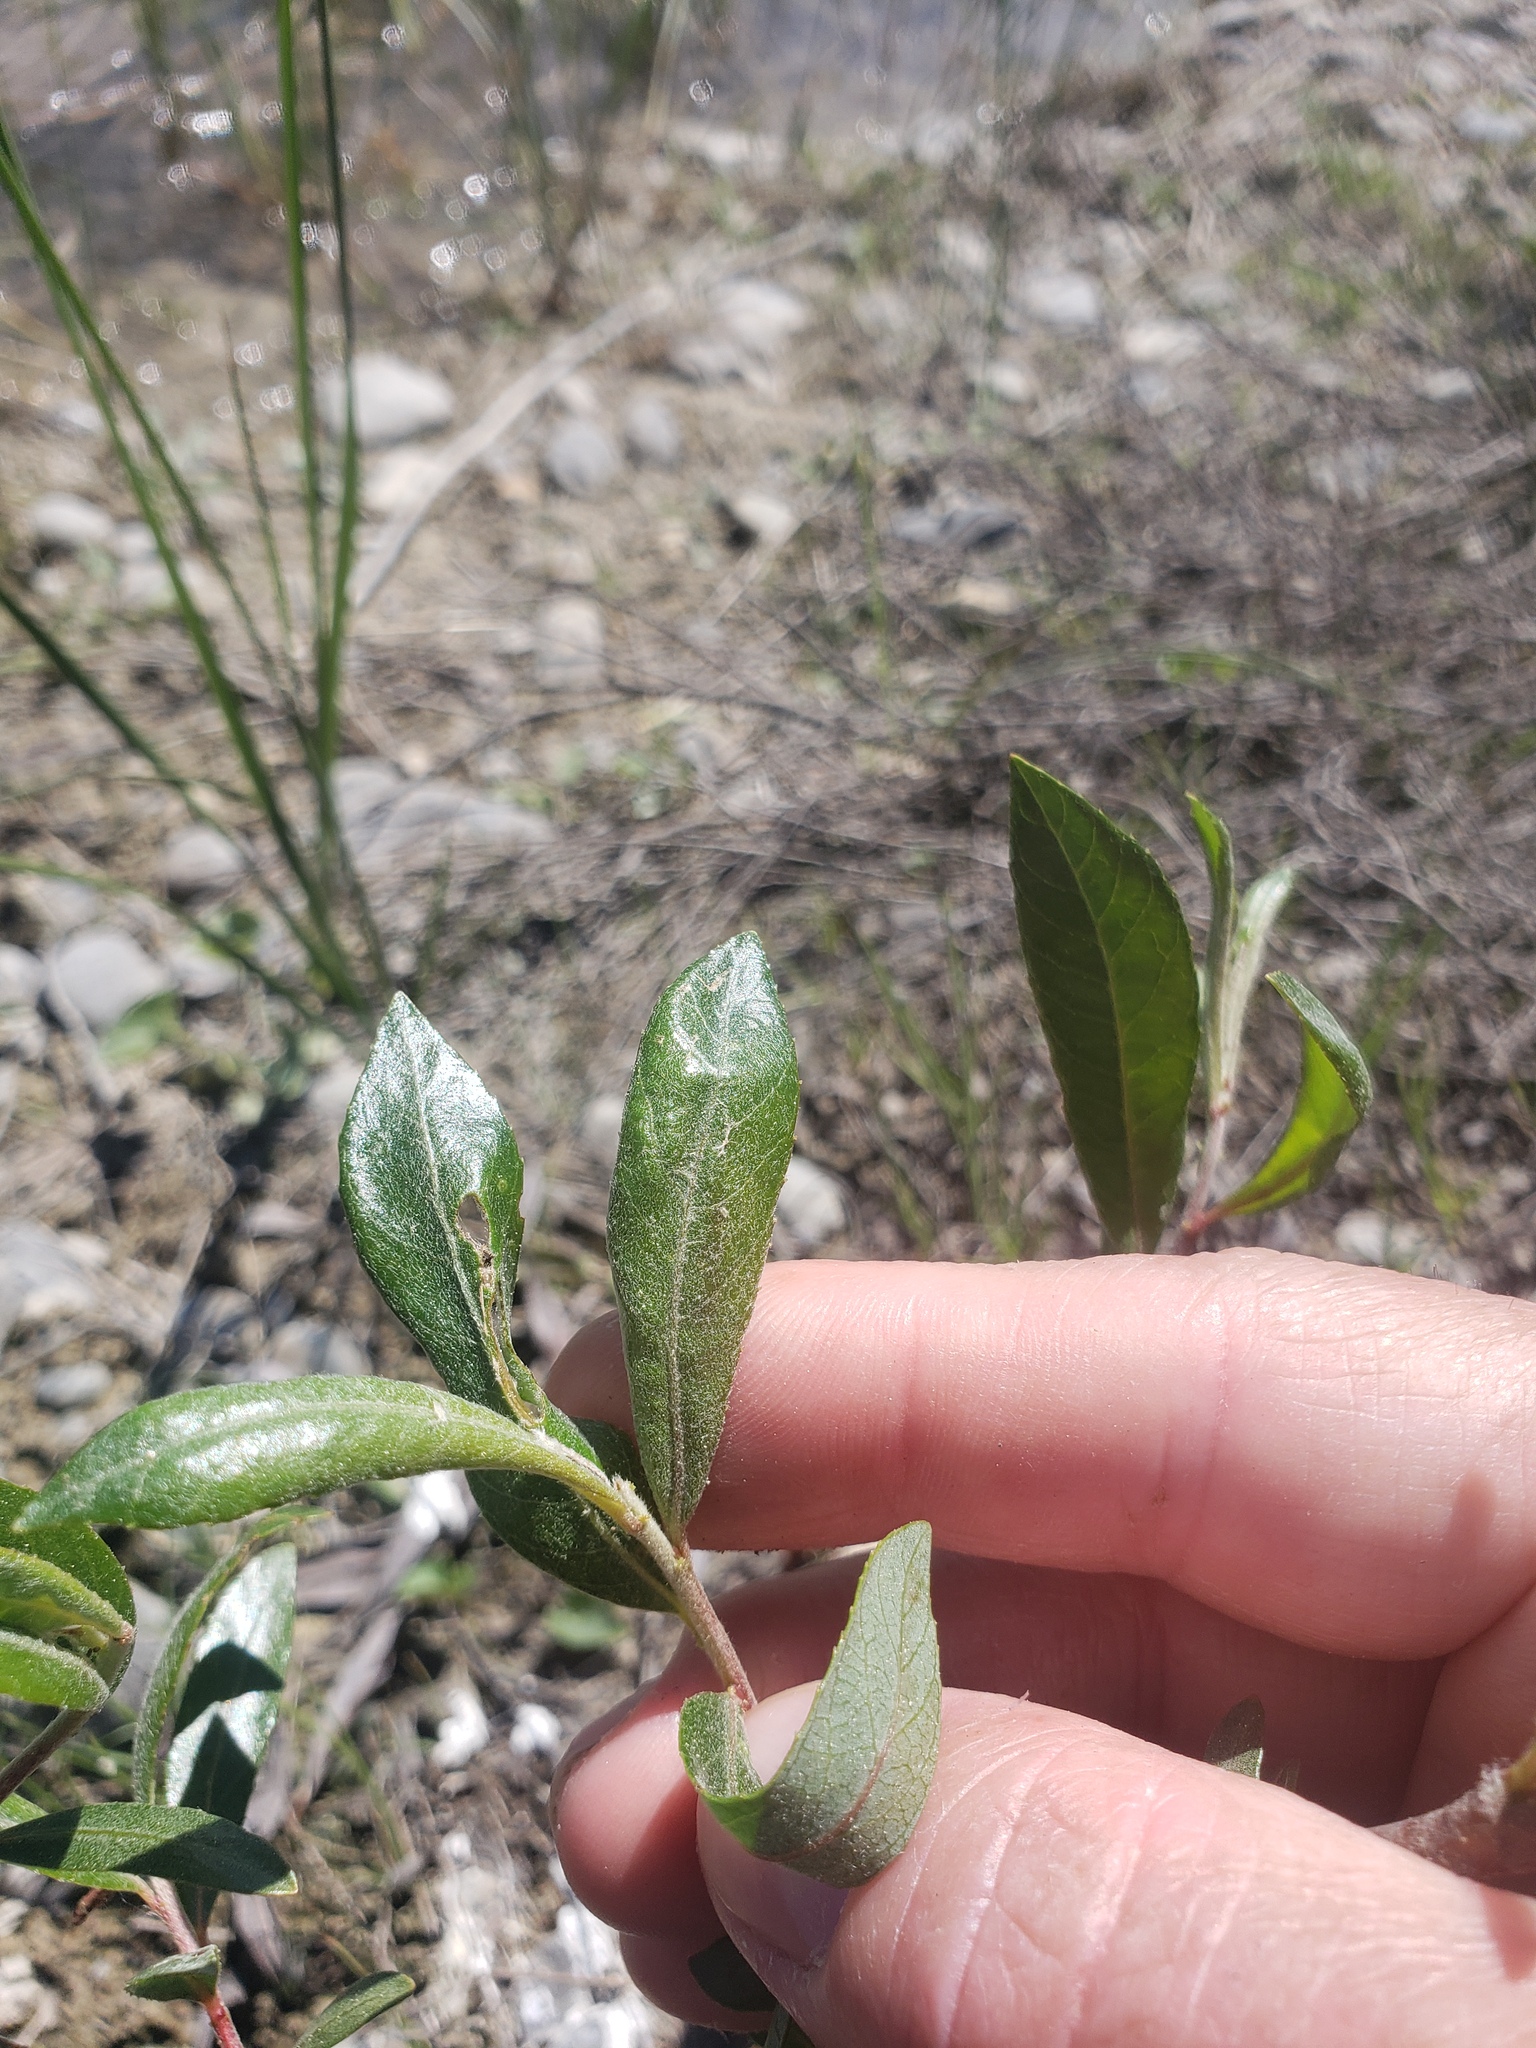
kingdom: Plantae
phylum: Tracheophyta
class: Magnoliopsida
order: Malpighiales
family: Salicaceae
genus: Salix
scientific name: Salix melanopsis
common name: Dusky willow
